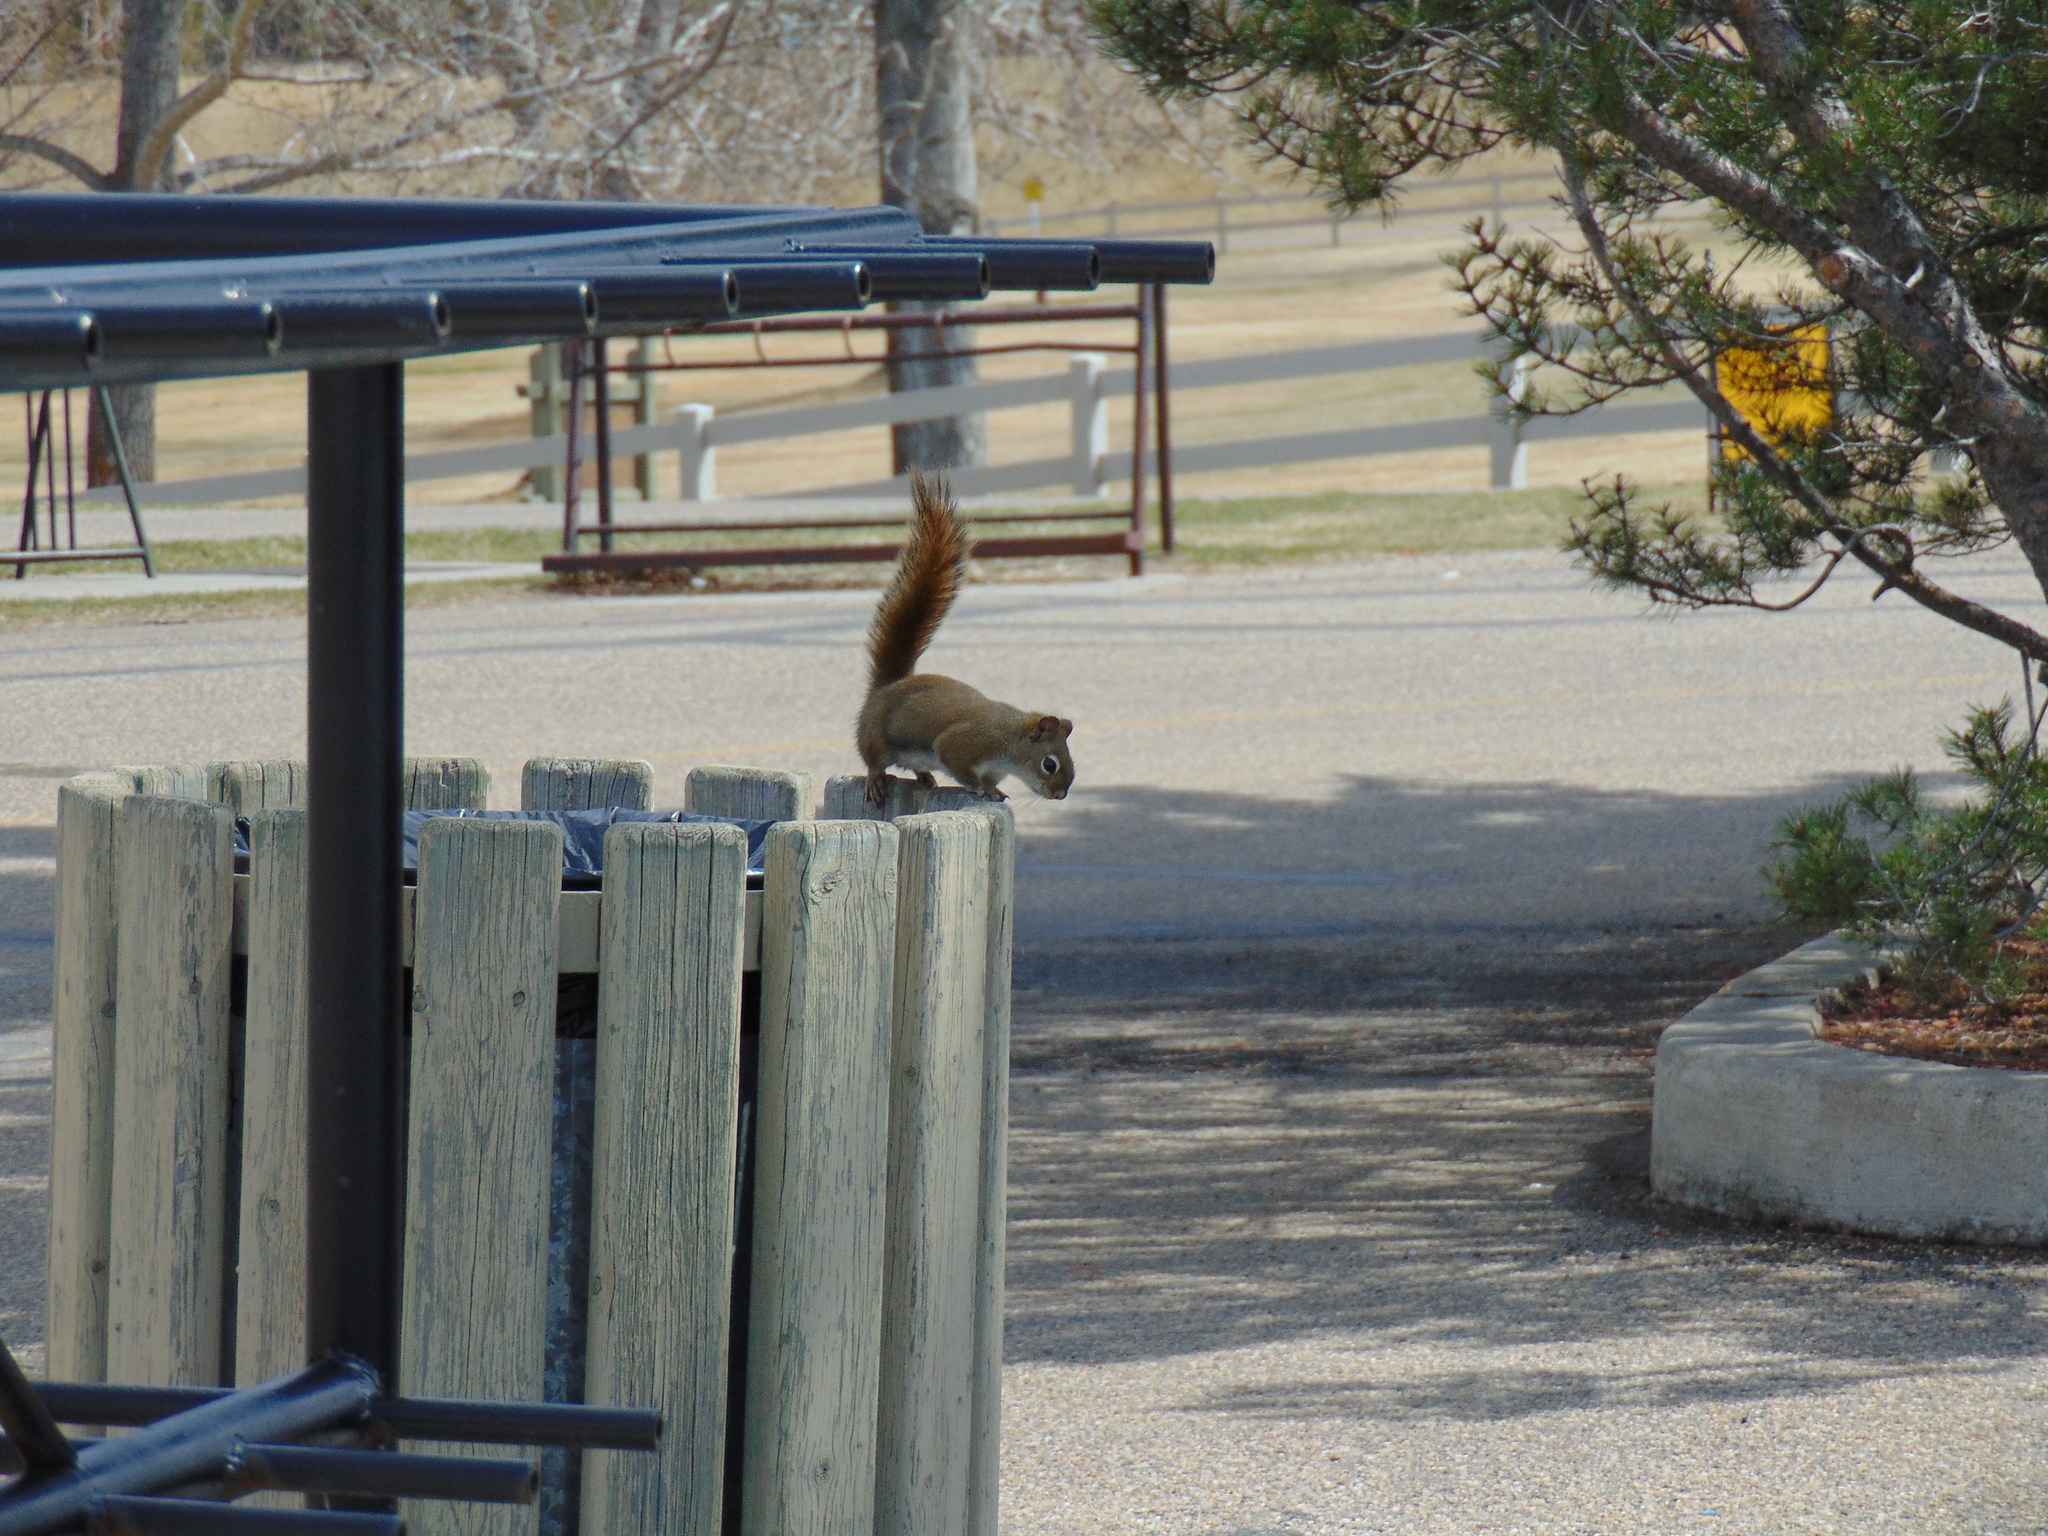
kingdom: Animalia
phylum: Chordata
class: Mammalia
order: Rodentia
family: Sciuridae
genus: Tamiasciurus
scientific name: Tamiasciurus hudsonicus
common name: Red squirrel
